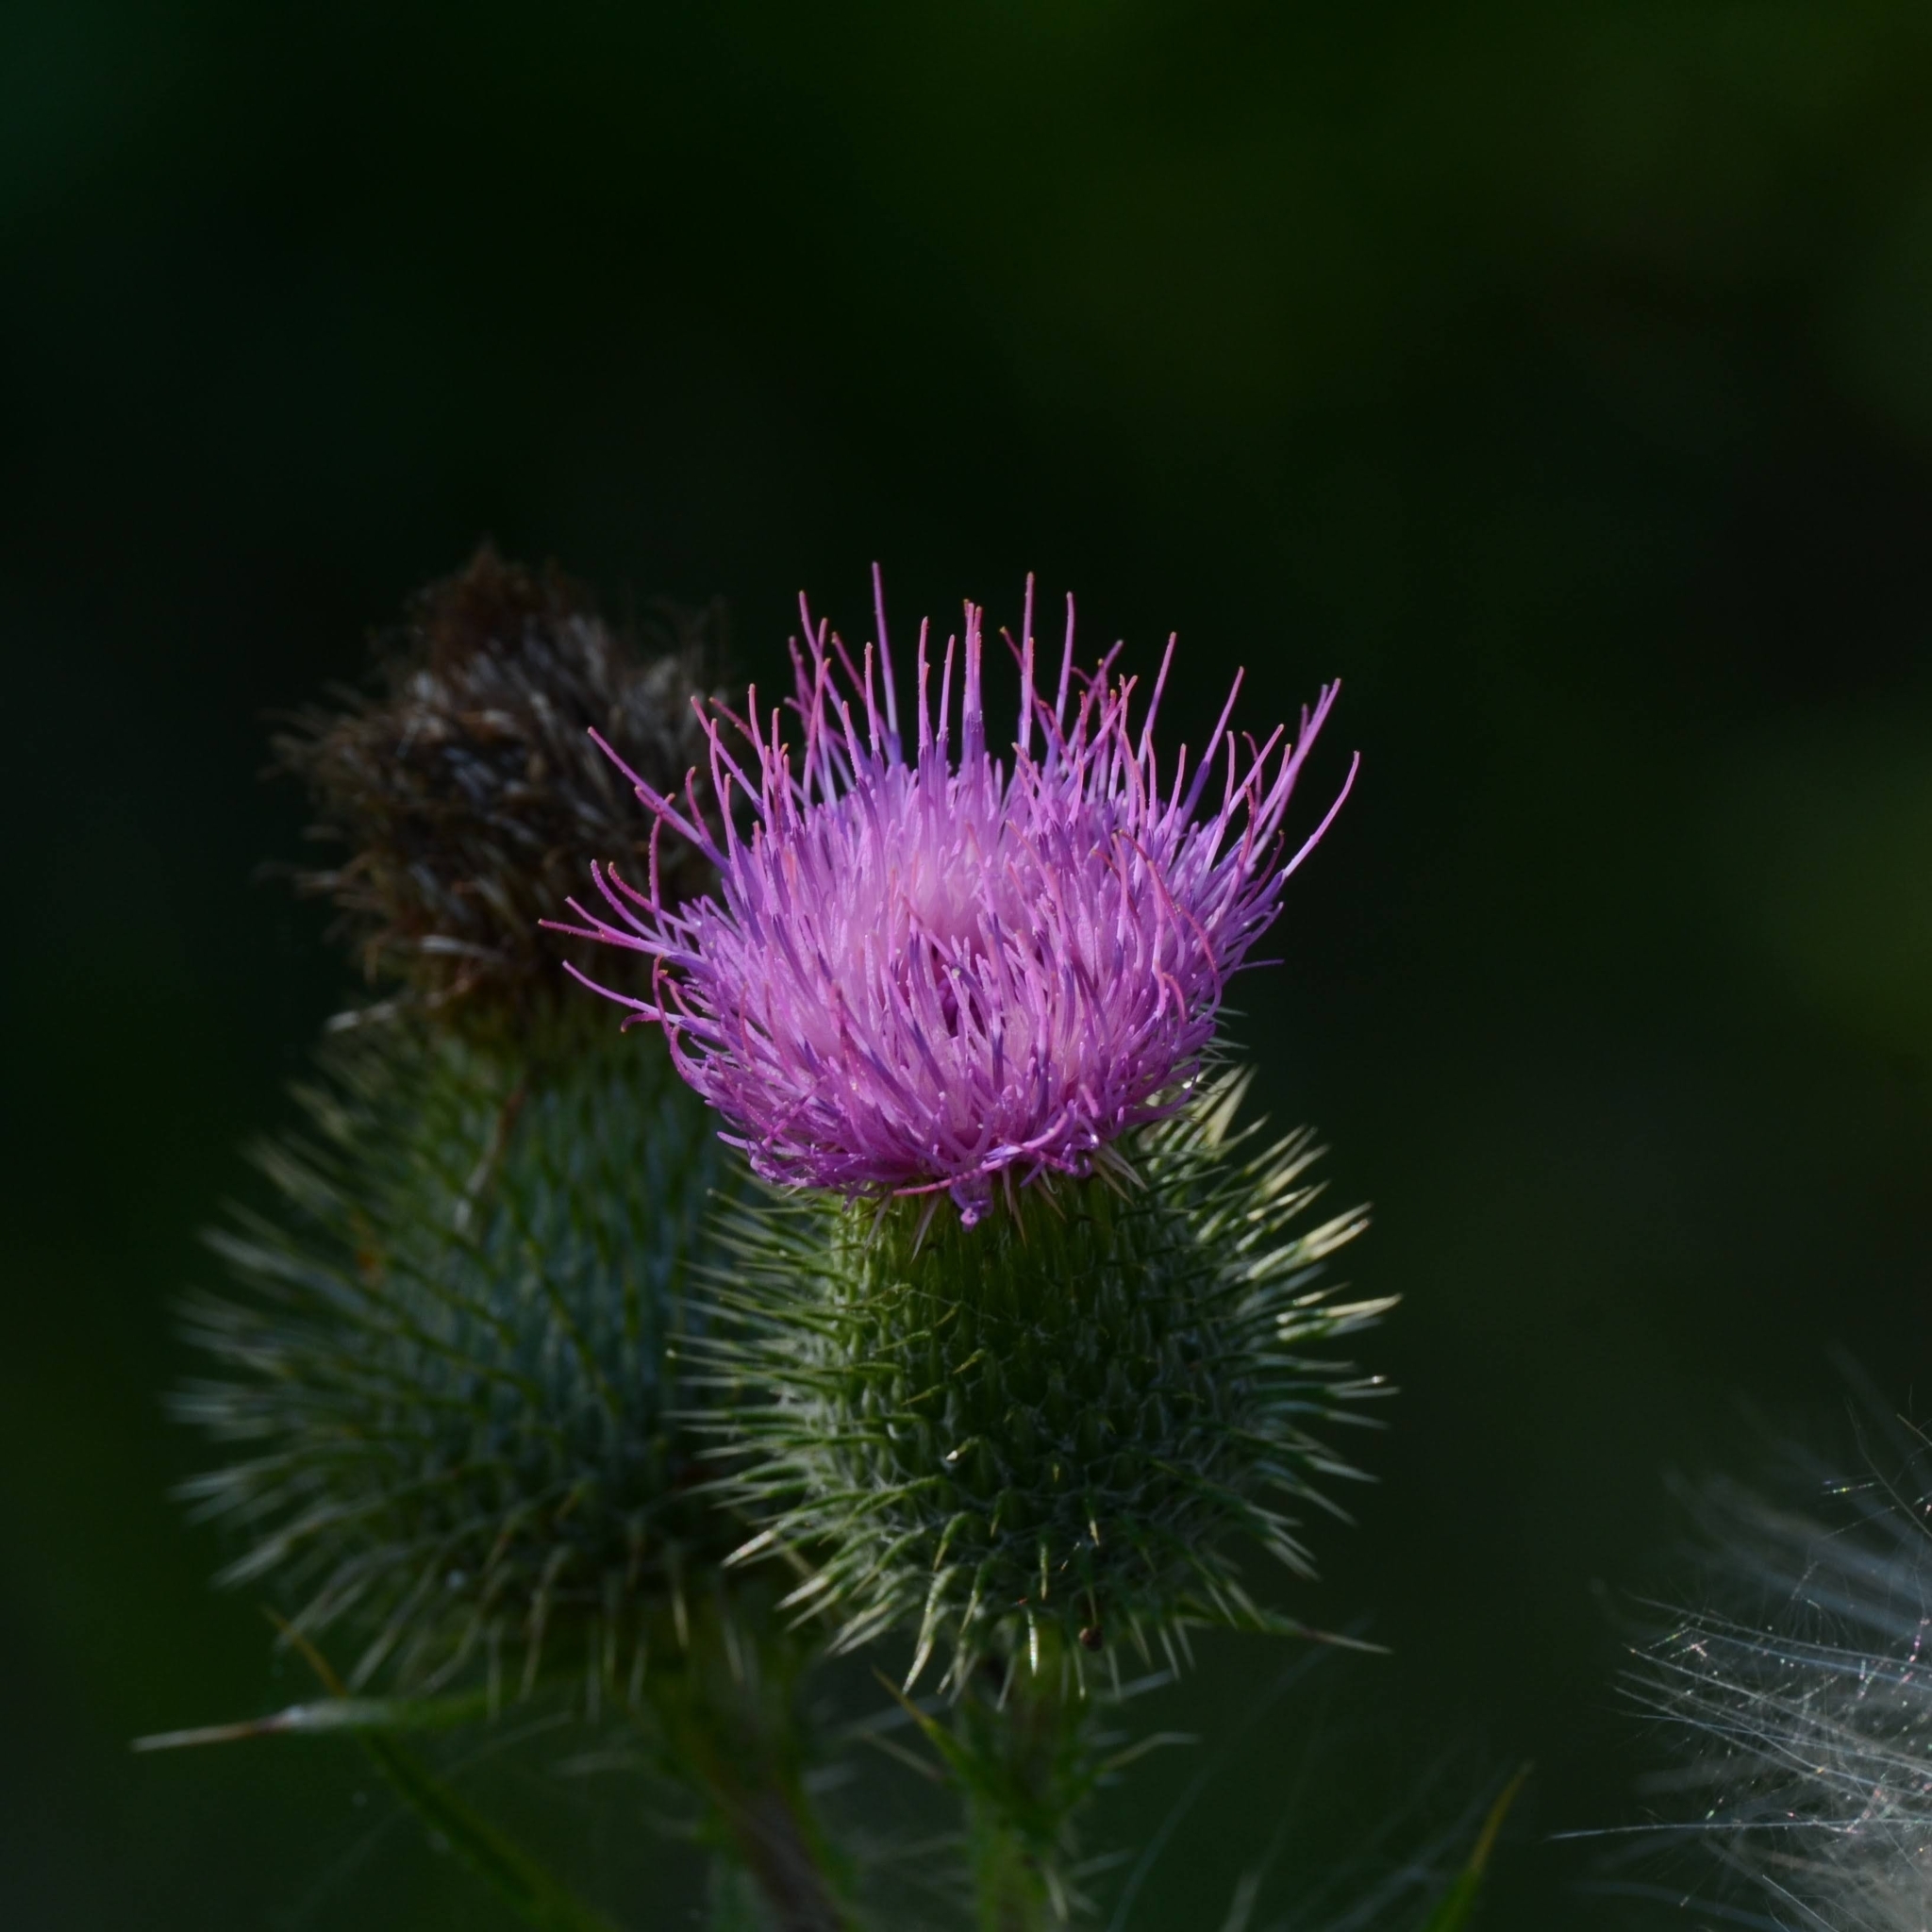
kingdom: Plantae
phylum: Tracheophyta
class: Magnoliopsida
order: Asterales
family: Asteraceae
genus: Cirsium
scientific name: Cirsium vulgare
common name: Bull thistle
